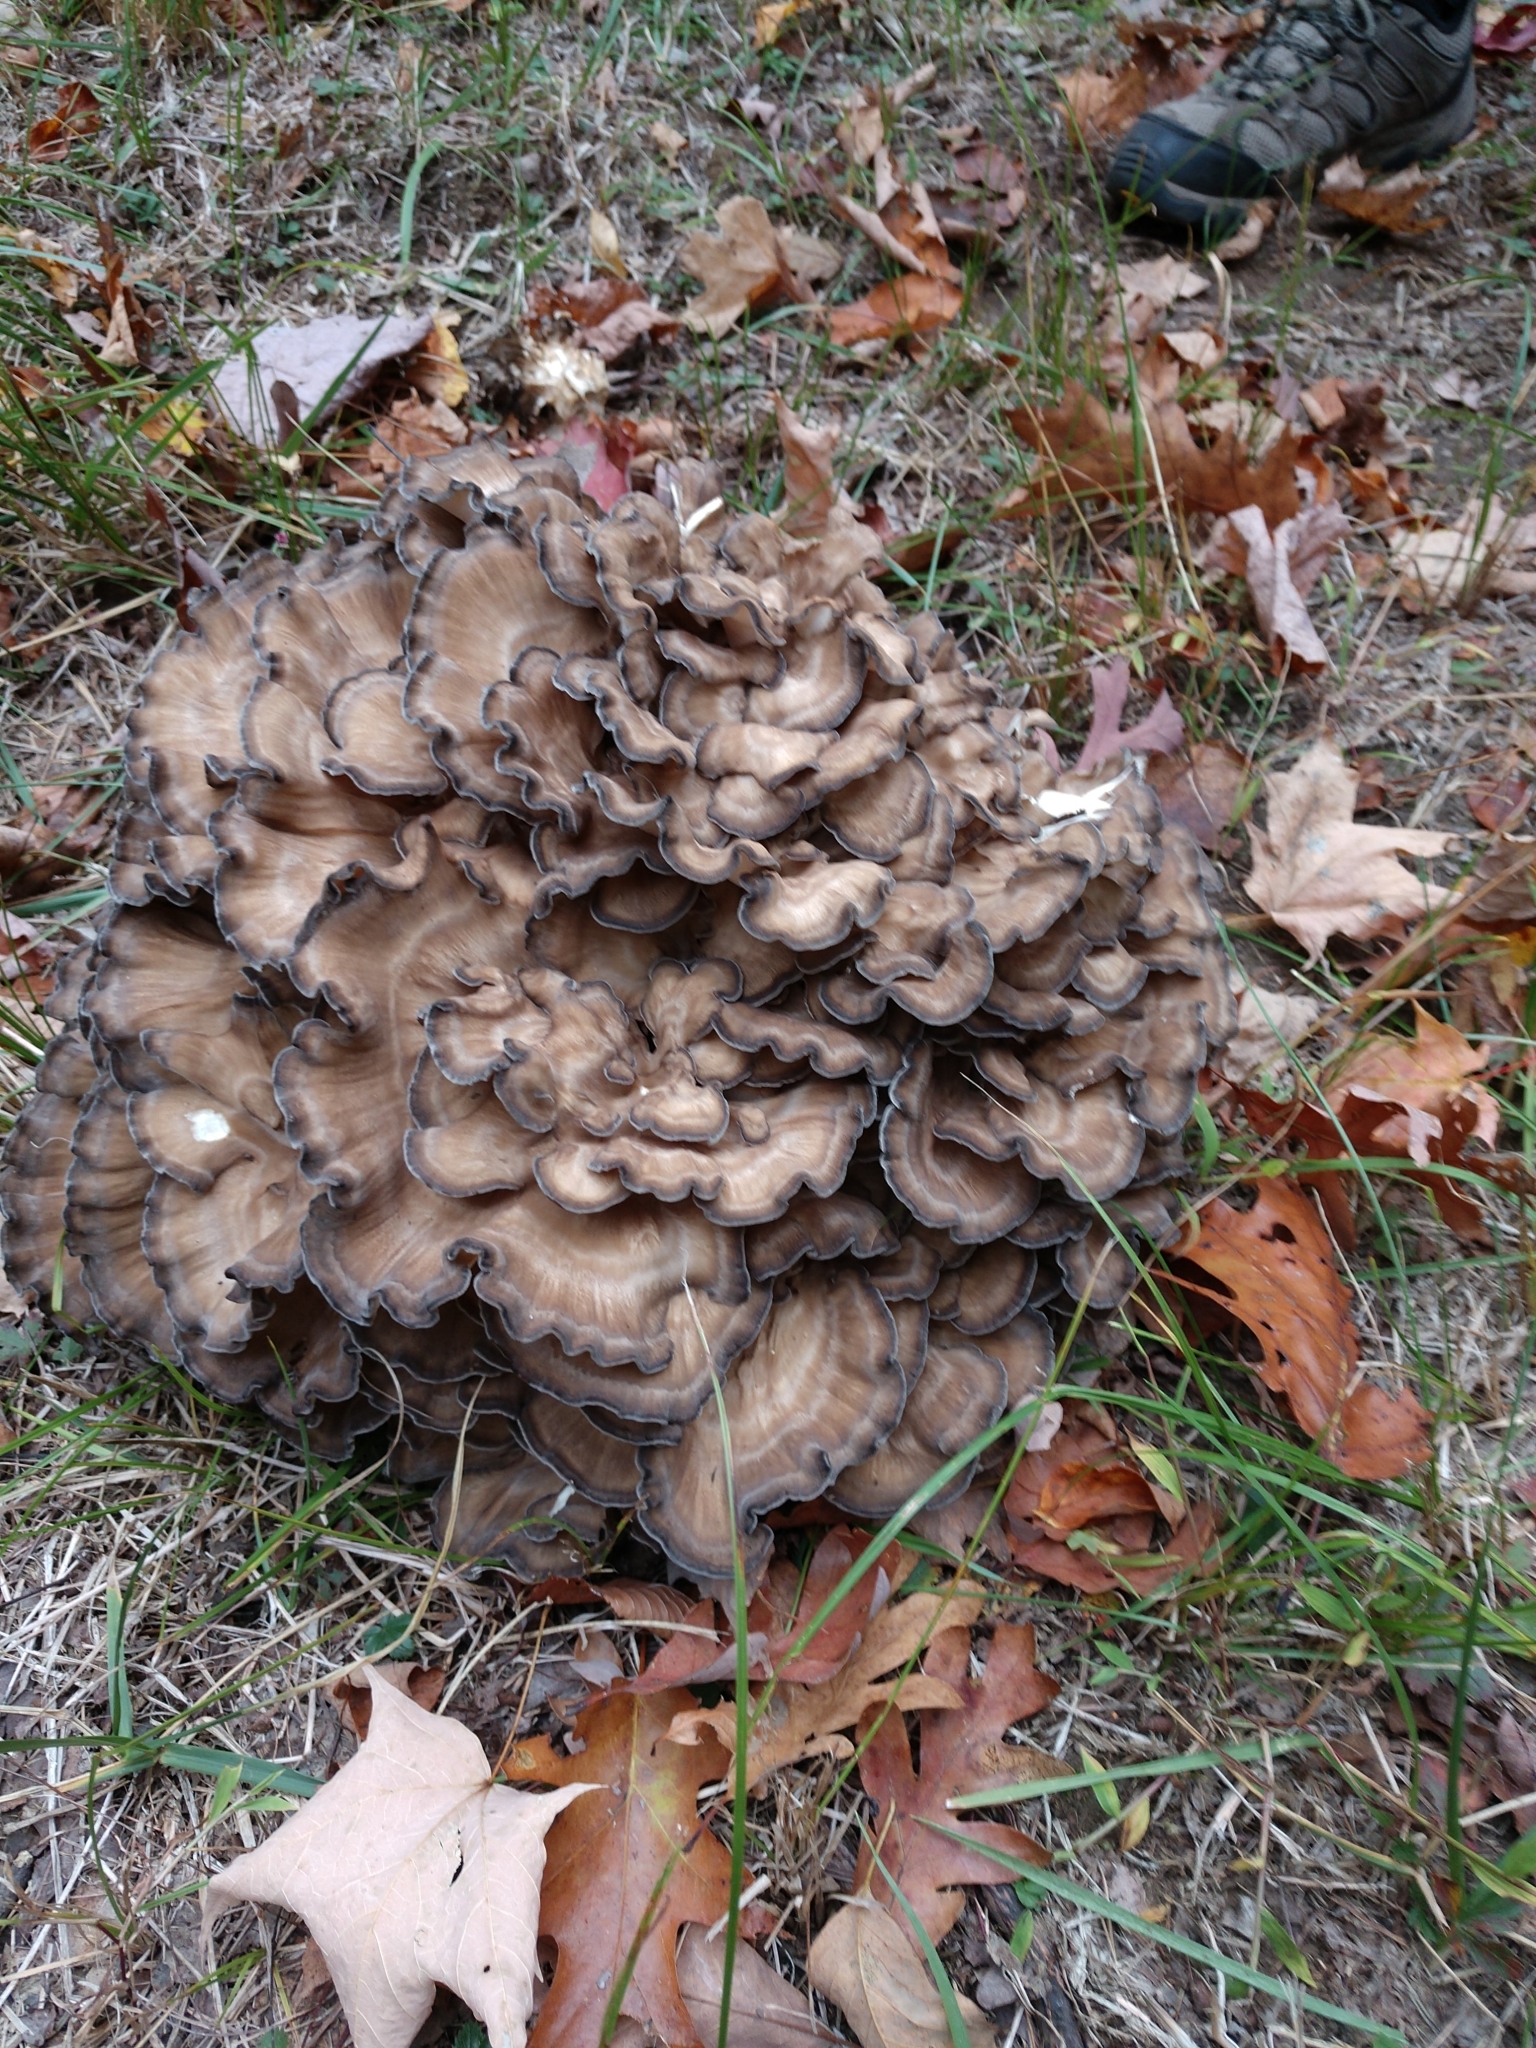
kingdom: Fungi
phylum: Basidiomycota
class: Agaricomycetes
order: Polyporales
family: Grifolaceae
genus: Grifola
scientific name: Grifola frondosa
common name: Hen of the woods
